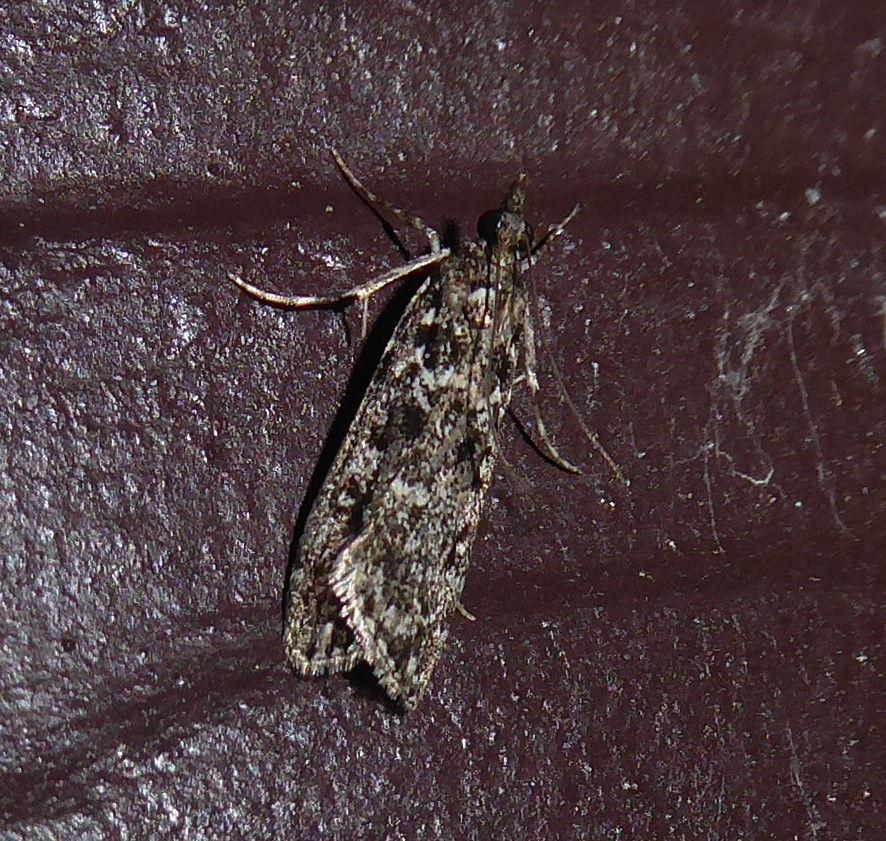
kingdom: Animalia
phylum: Arthropoda
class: Insecta
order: Lepidoptera
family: Crambidae
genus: Eudonia
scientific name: Eudonia philerga
